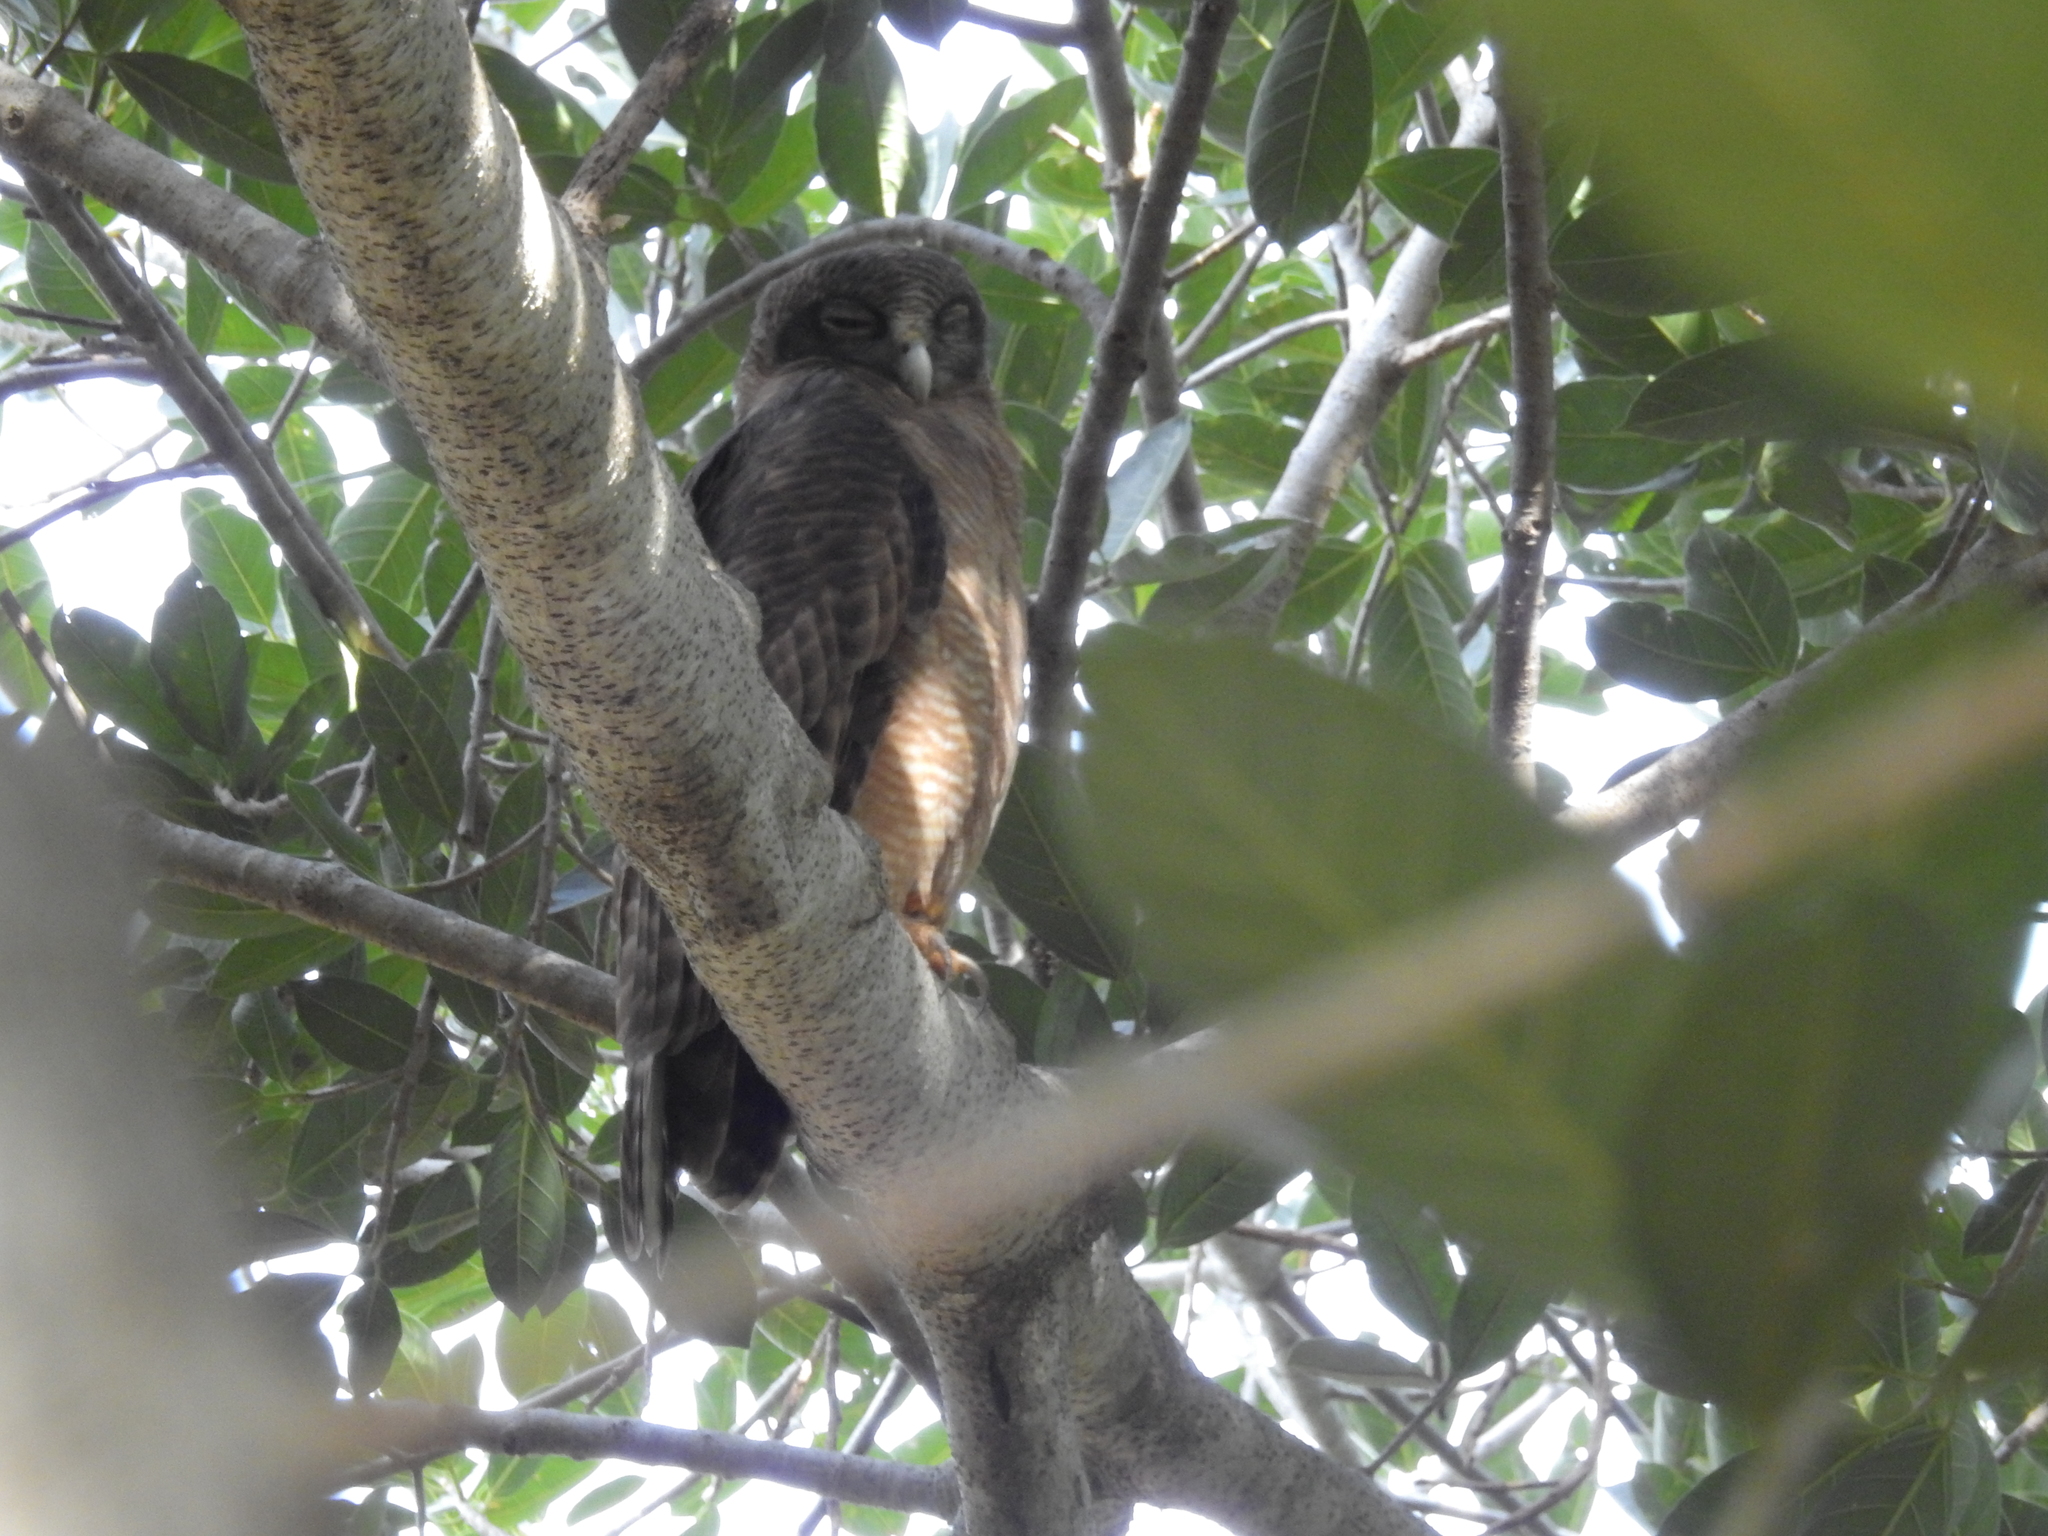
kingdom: Animalia
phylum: Chordata
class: Aves
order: Strigiformes
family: Strigidae
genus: Ninox
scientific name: Ninox rufa
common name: Rufous owl
